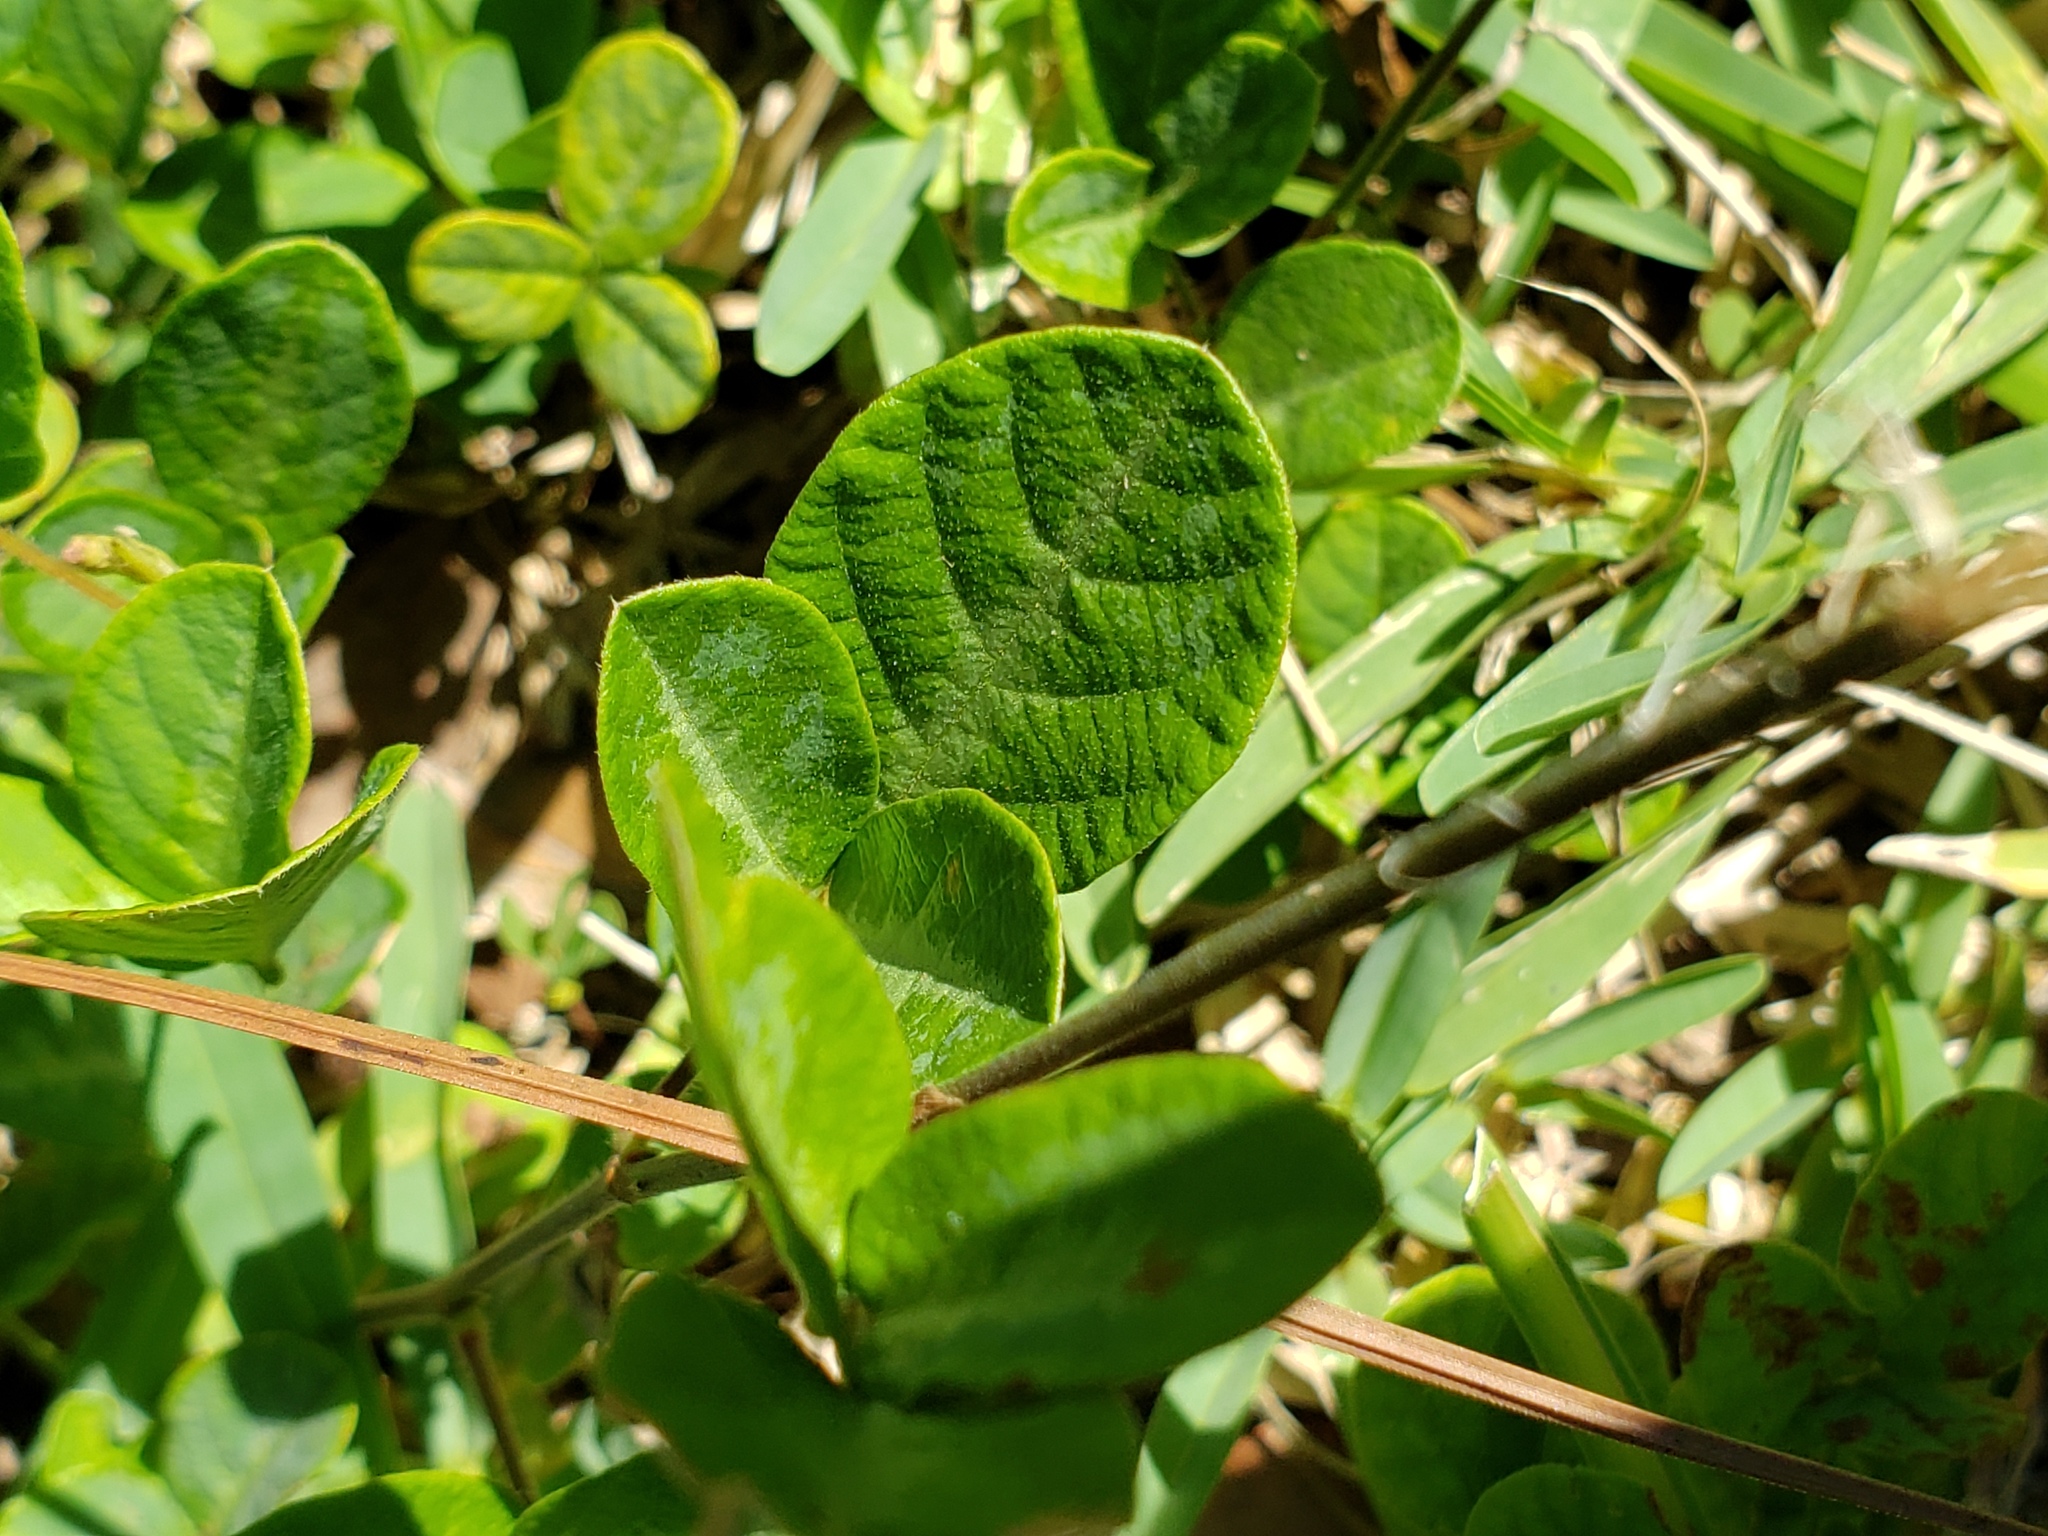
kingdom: Plantae
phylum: Tracheophyta
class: Magnoliopsida
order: Fabales
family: Fabaceae
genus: Desmodium
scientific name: Desmodium incanum
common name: Tickclover
